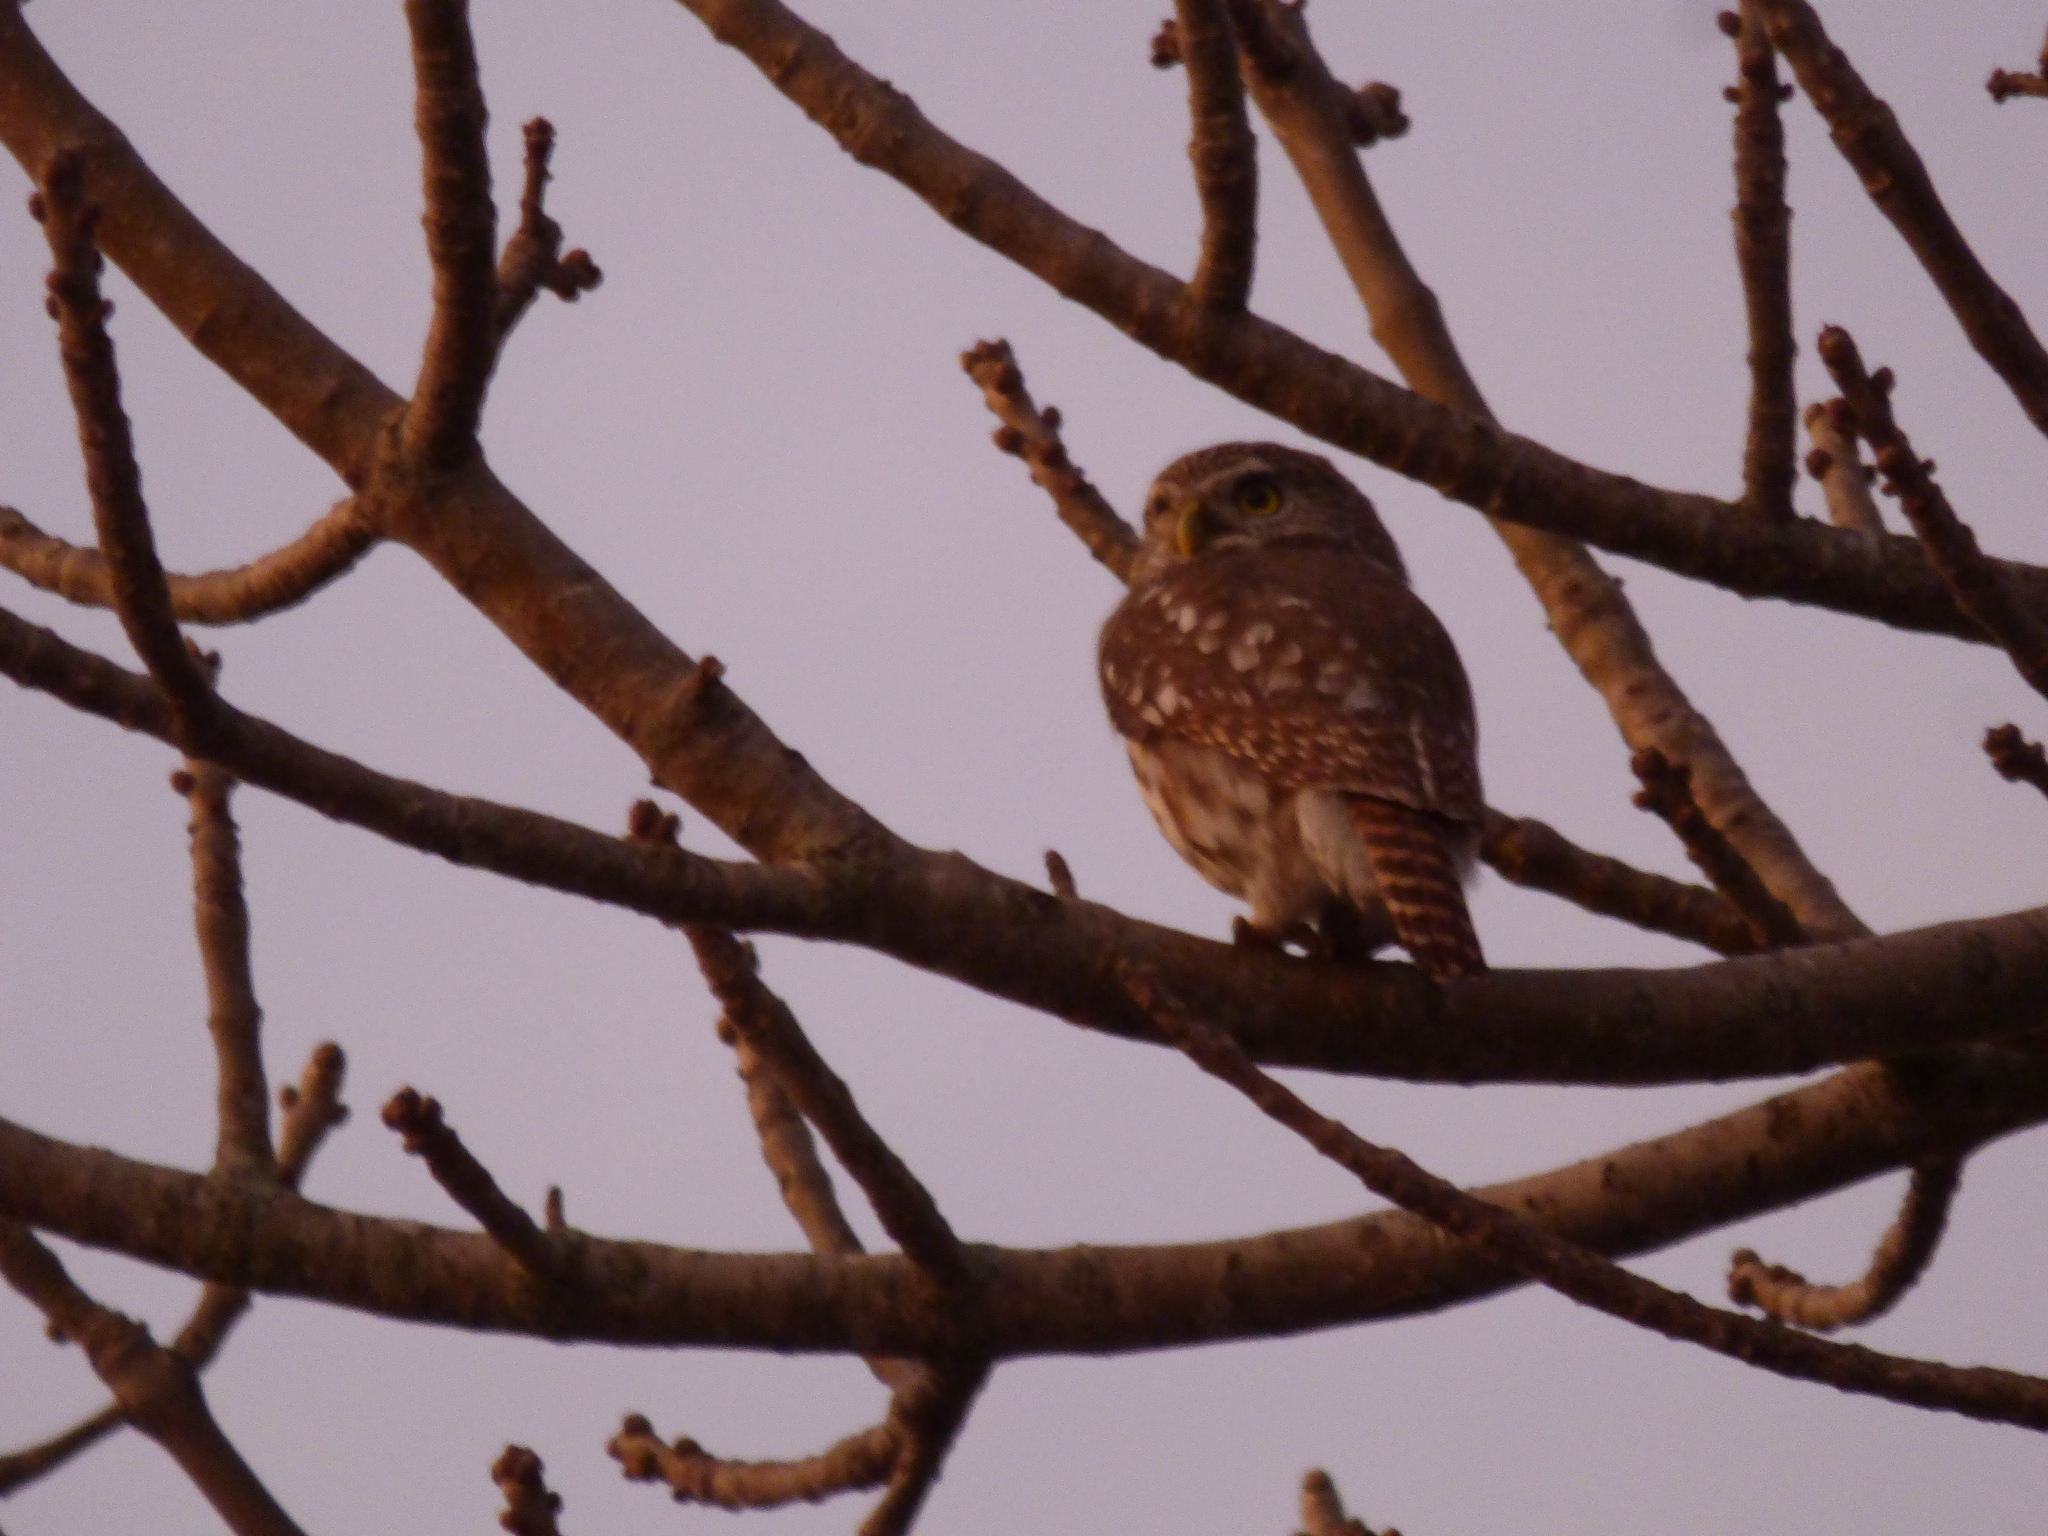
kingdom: Animalia
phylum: Chordata
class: Aves
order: Strigiformes
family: Strigidae
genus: Glaucidium
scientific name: Glaucidium brasilianum
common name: Ferruginous pygmy-owl
